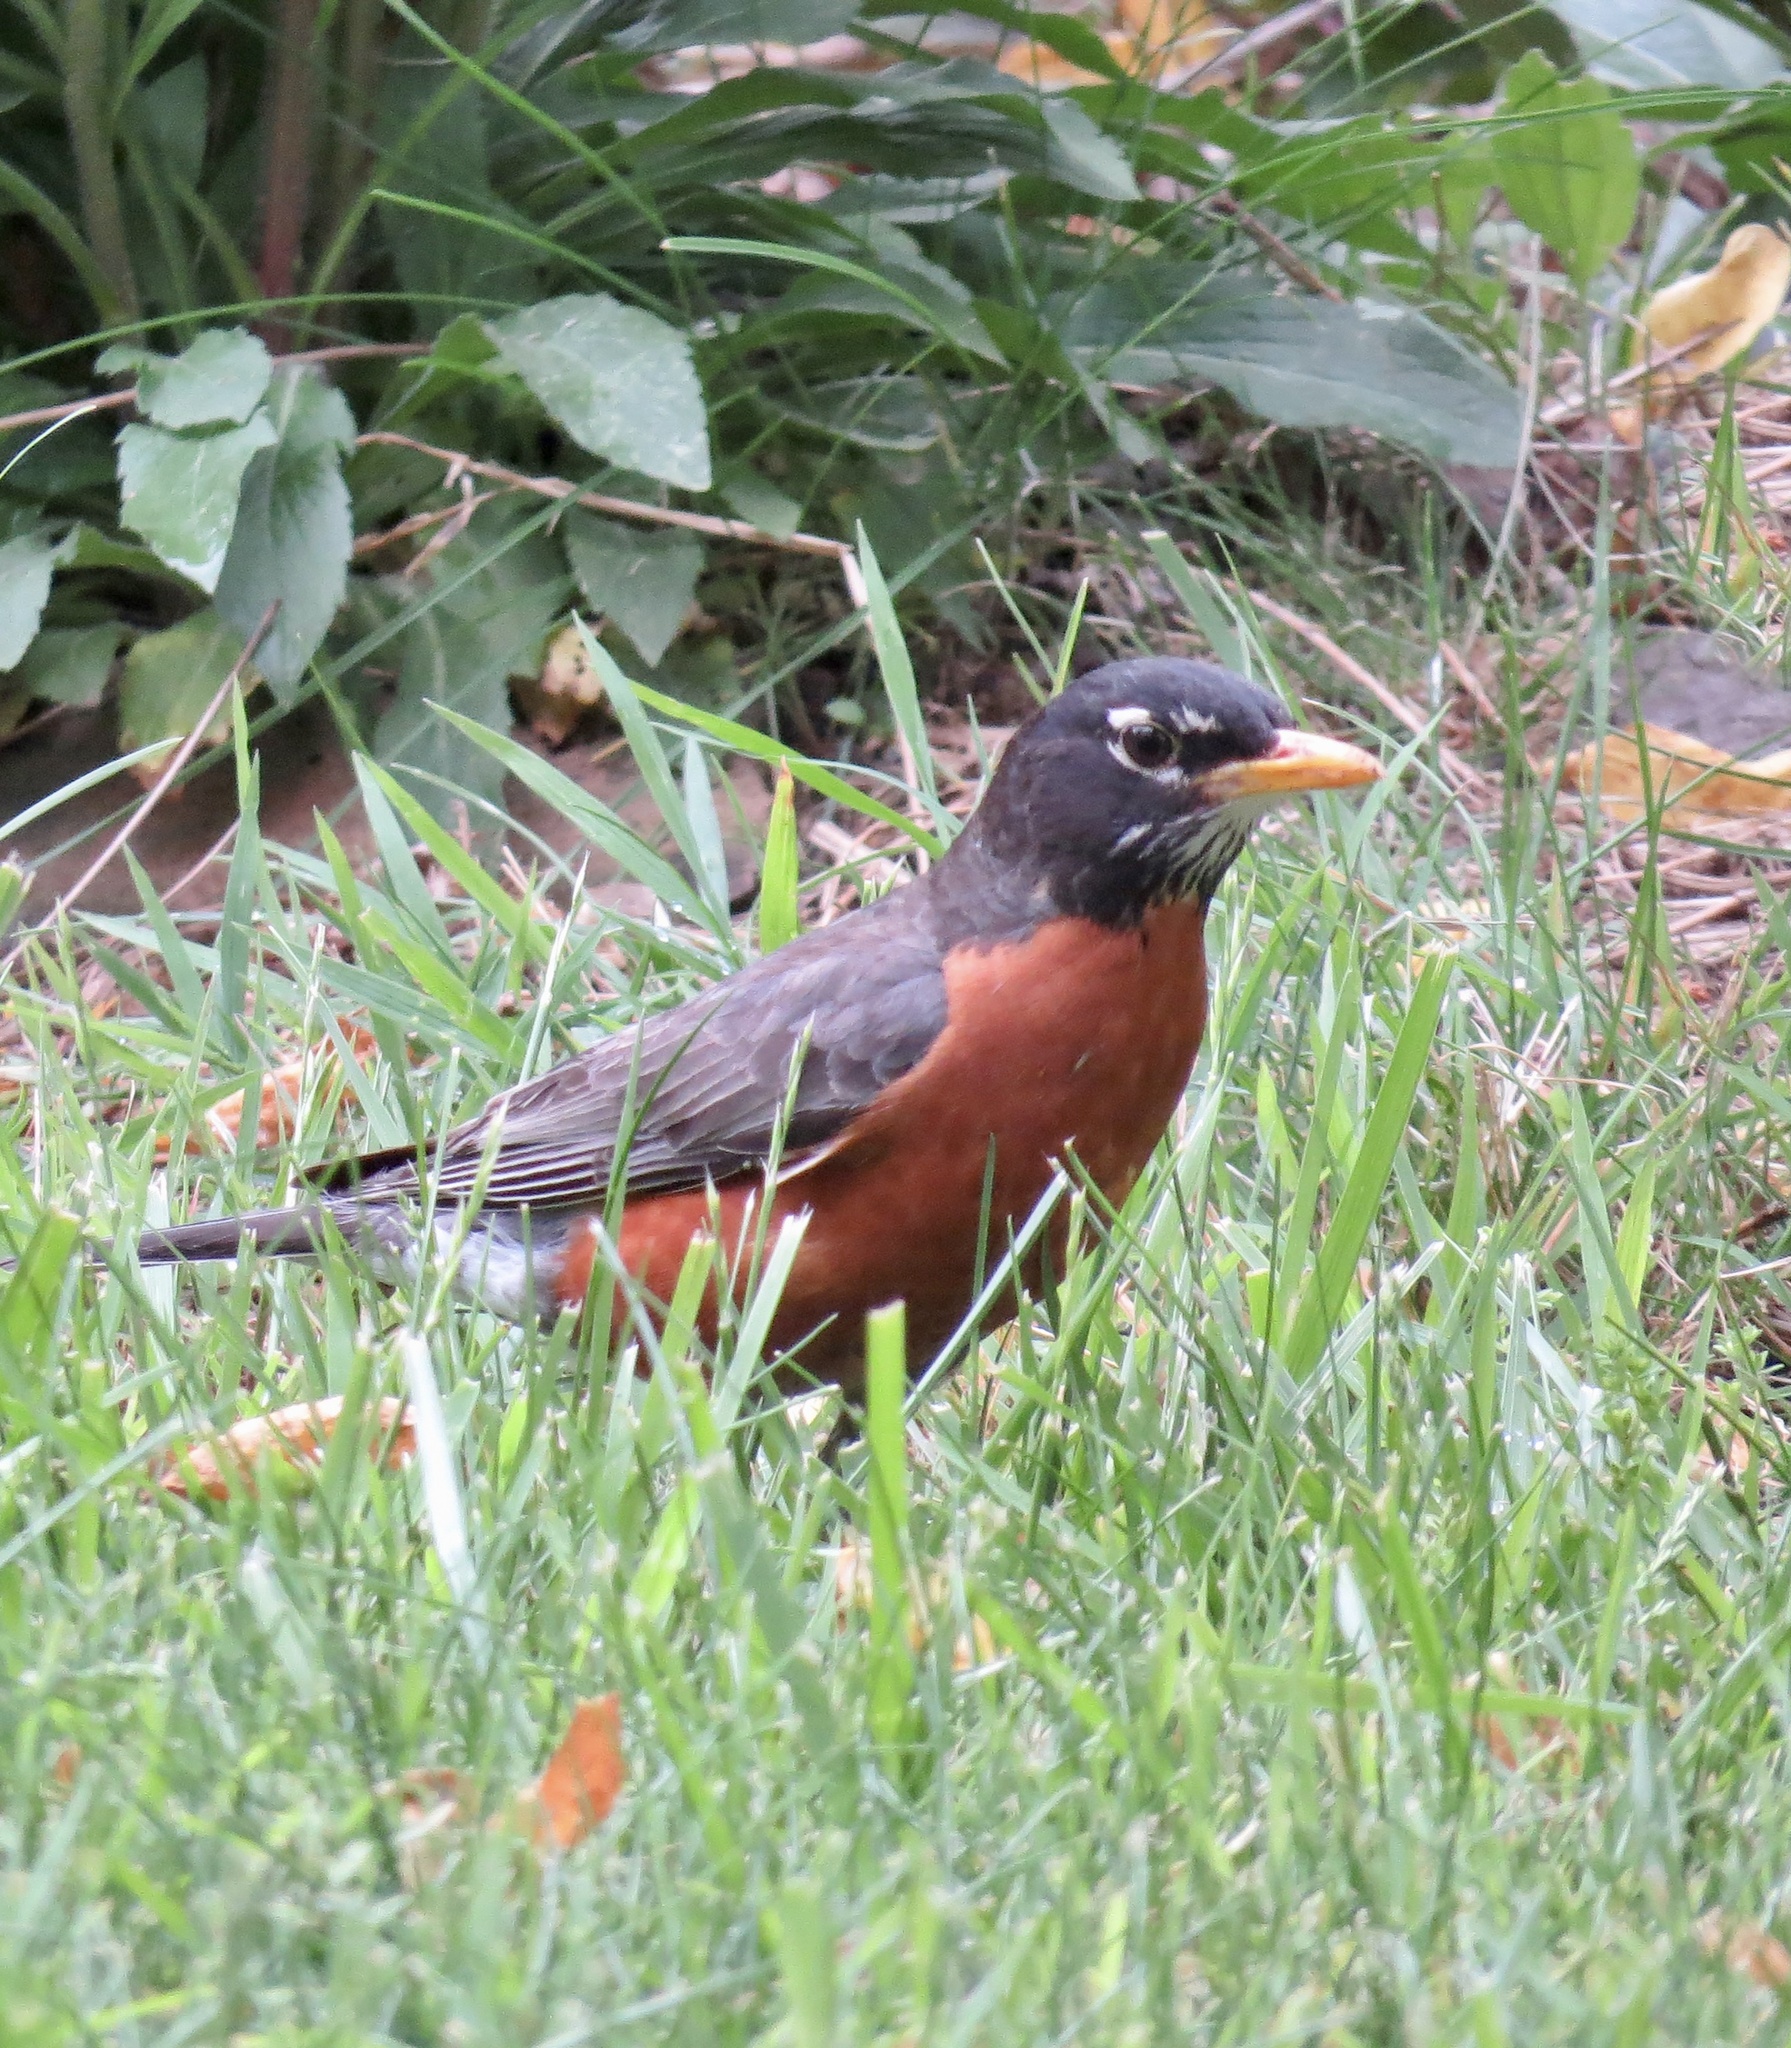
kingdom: Animalia
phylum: Chordata
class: Aves
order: Passeriformes
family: Turdidae
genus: Turdus
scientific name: Turdus migratorius
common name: American robin
